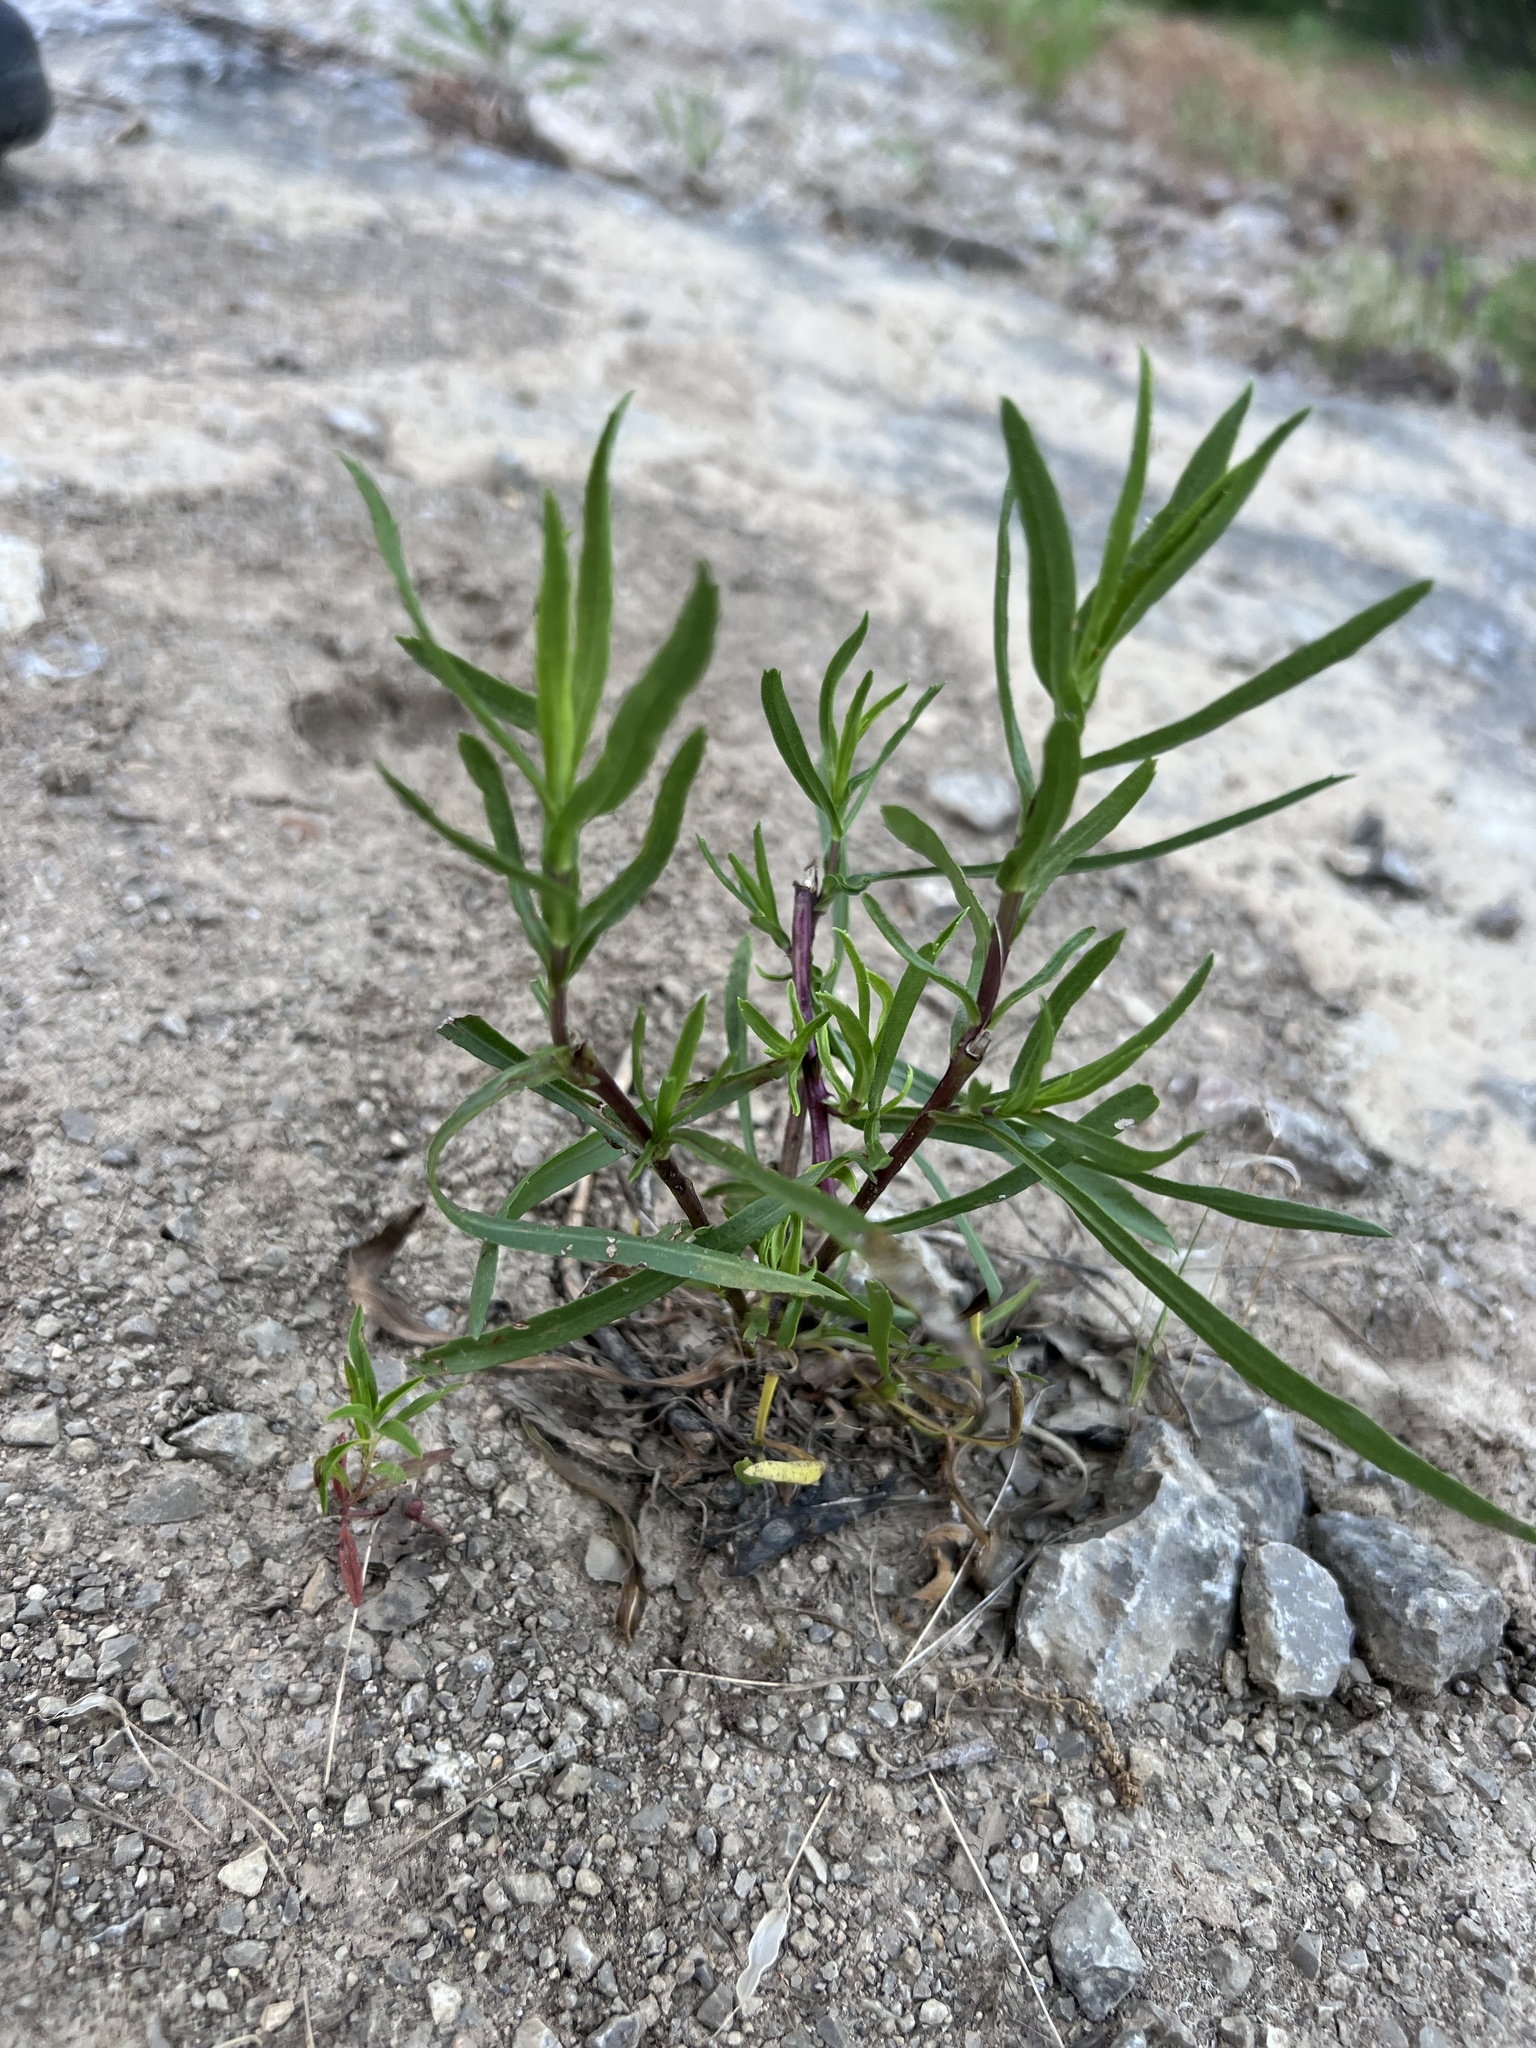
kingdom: Plantae
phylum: Tracheophyta
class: Magnoliopsida
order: Asterales
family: Asteraceae
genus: Grindelia
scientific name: Grindelia lanceolata
